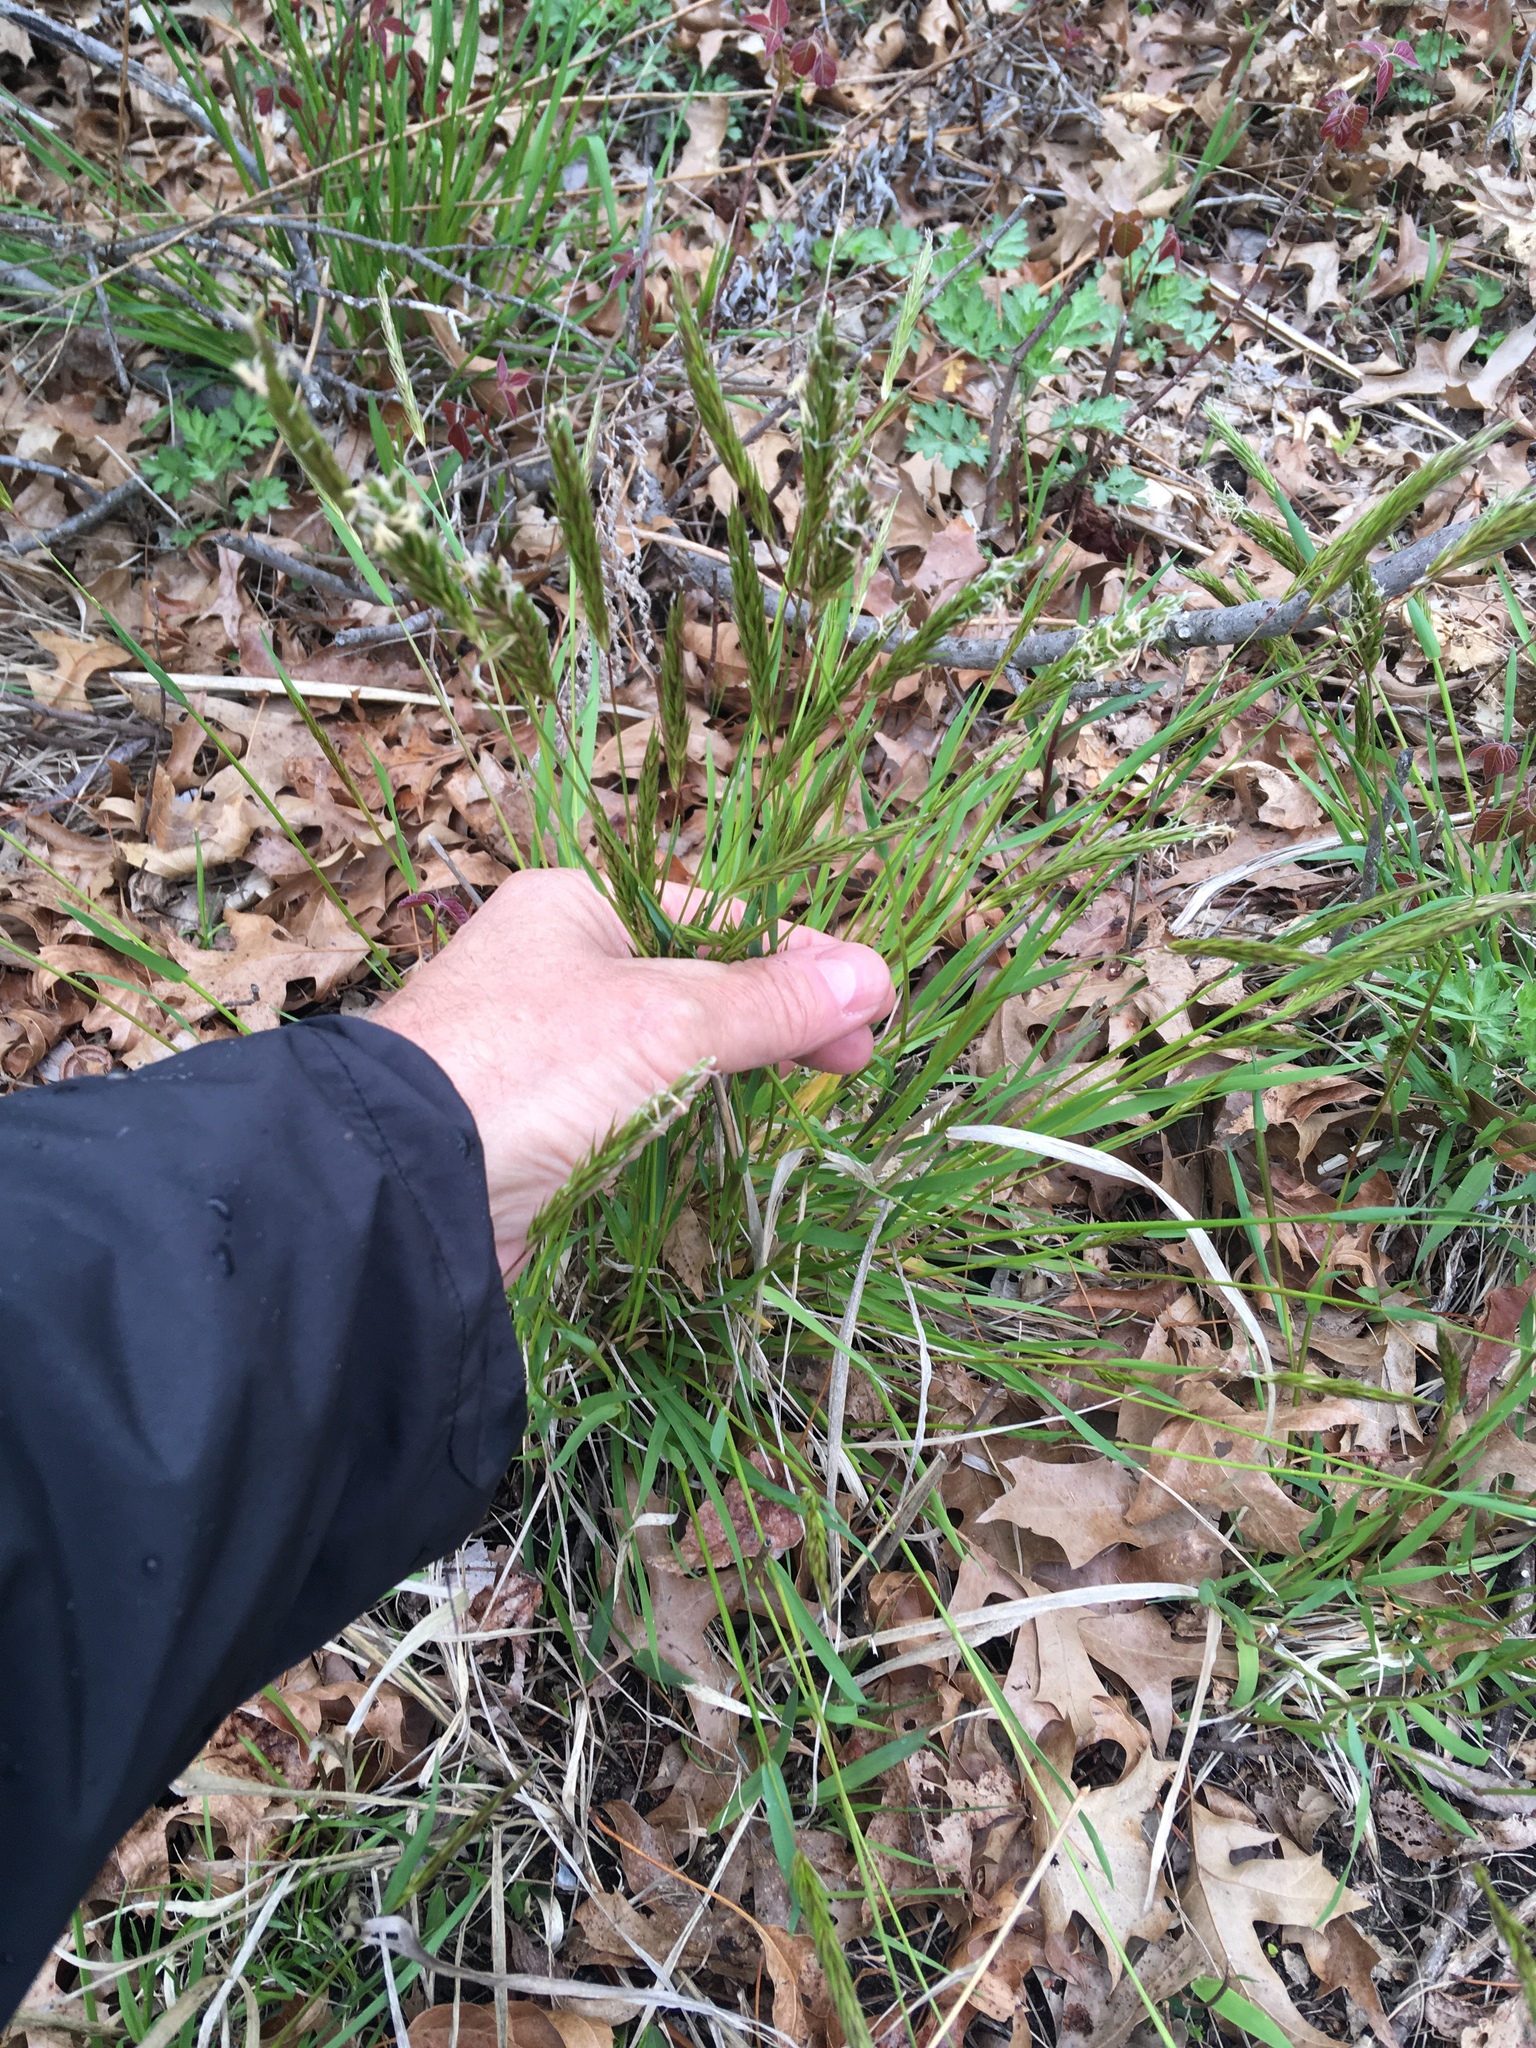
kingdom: Plantae
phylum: Tracheophyta
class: Liliopsida
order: Poales
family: Poaceae
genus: Anthoxanthum
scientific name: Anthoxanthum odoratum
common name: Sweet vernalgrass
